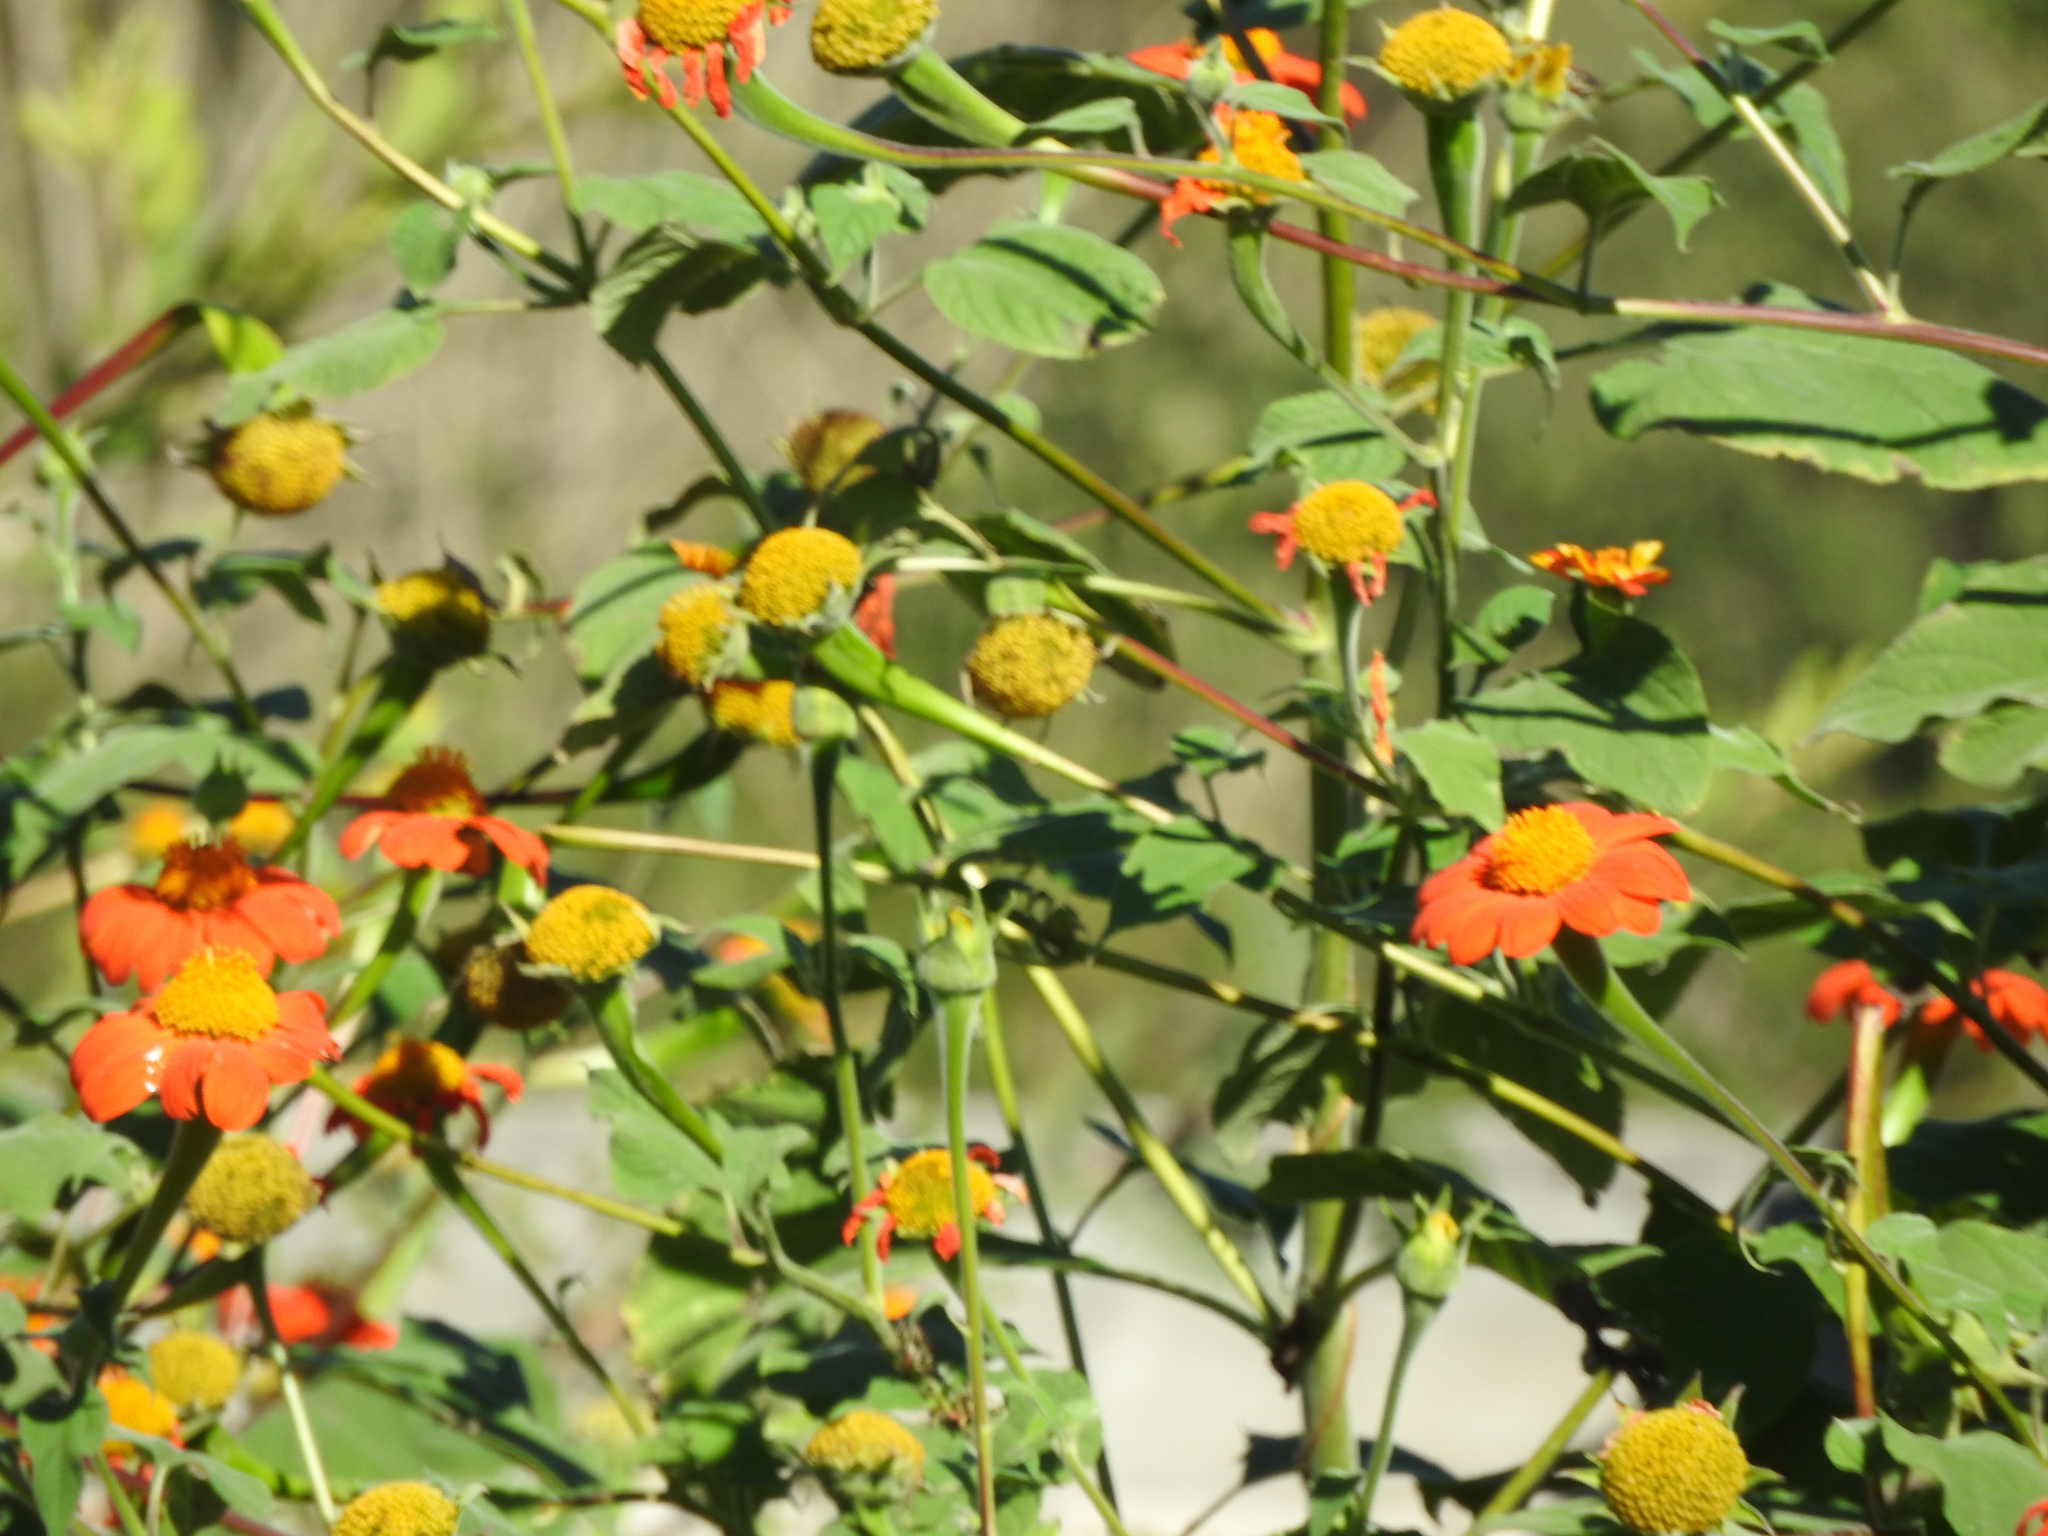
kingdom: Plantae
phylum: Tracheophyta
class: Magnoliopsida
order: Asterales
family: Asteraceae
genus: Tithonia
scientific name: Tithonia rotundifolia
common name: Sunflower
